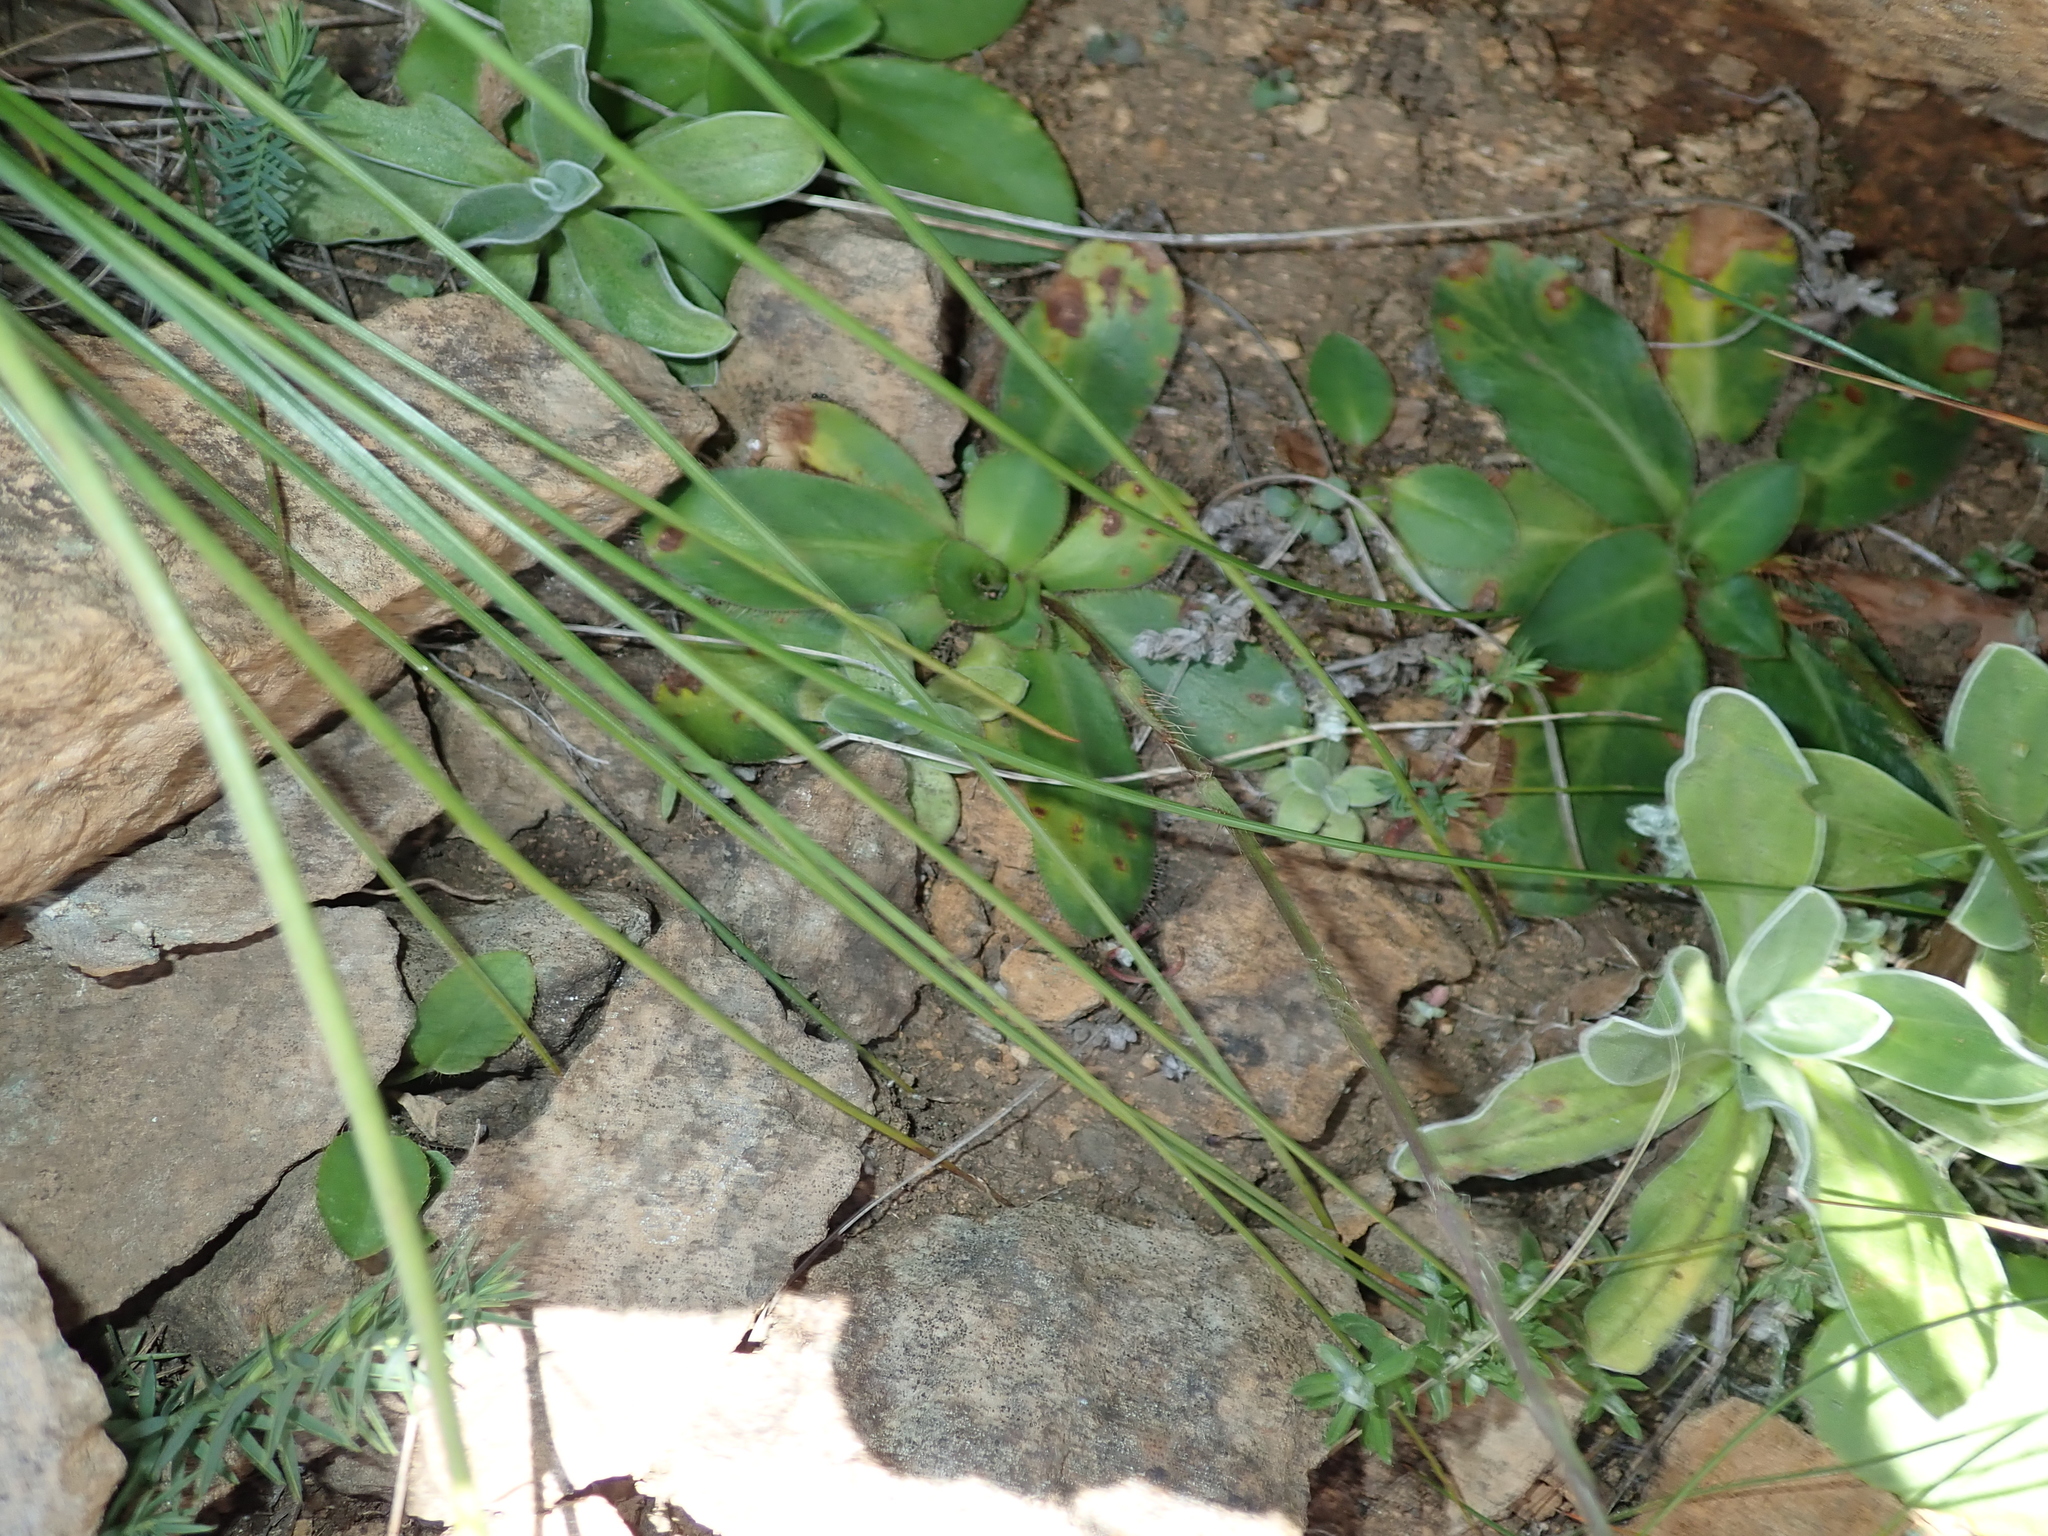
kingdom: Plantae
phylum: Tracheophyta
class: Magnoliopsida
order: Apiales
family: Apiaceae
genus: Alepidea
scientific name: Alepidea natalensis
